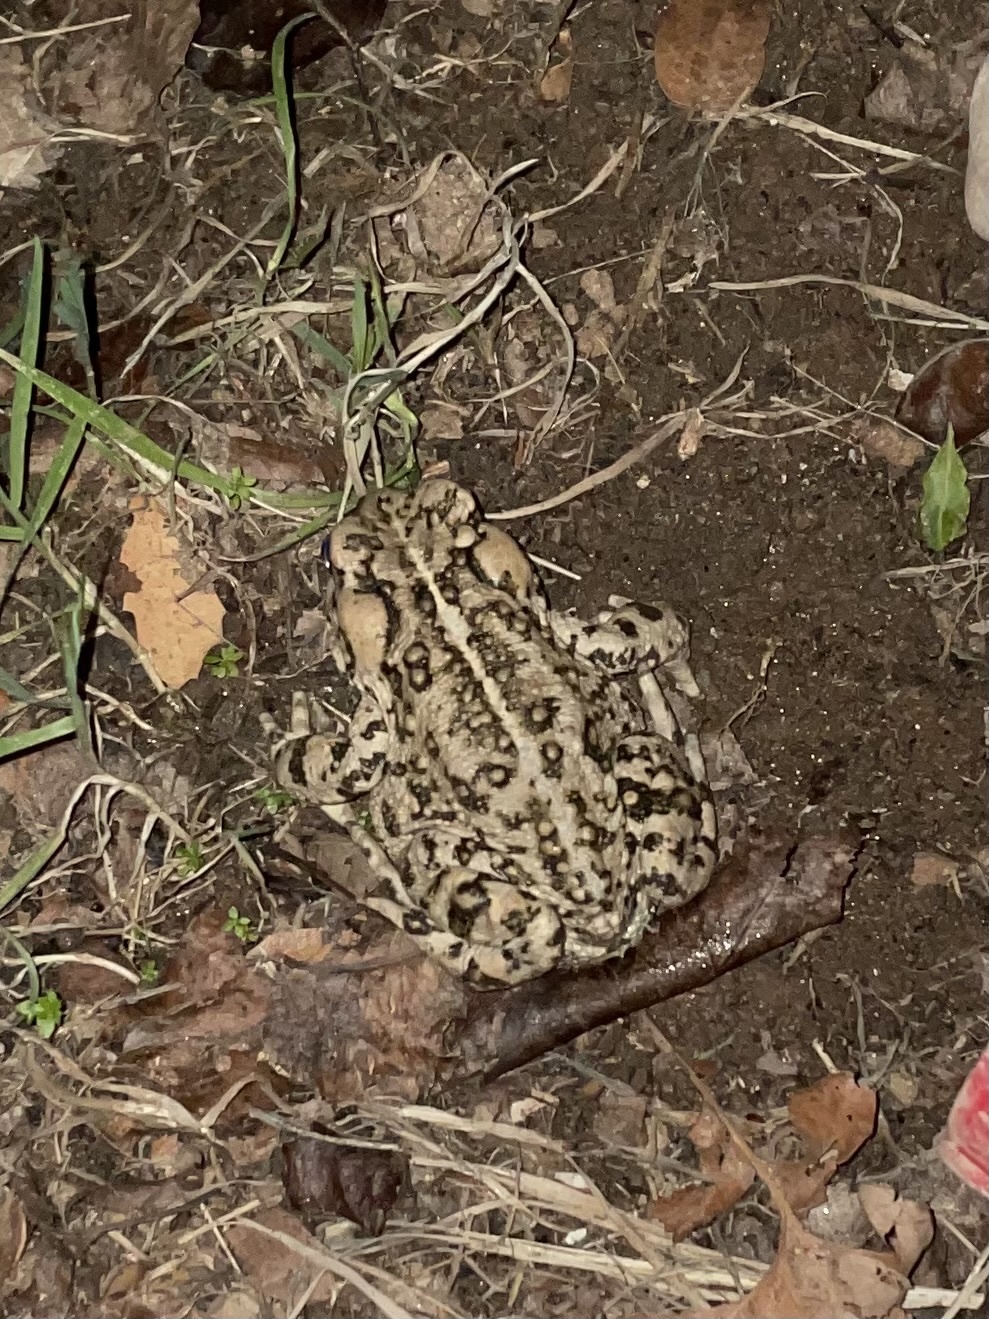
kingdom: Animalia
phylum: Chordata
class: Amphibia
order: Anura
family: Bufonidae
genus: Anaxyrus
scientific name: Anaxyrus boreas
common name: Western toad
